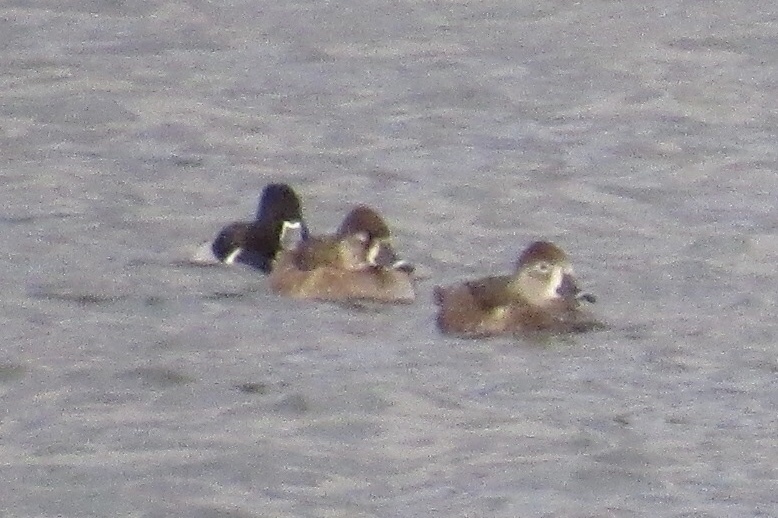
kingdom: Animalia
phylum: Chordata
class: Aves
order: Anseriformes
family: Anatidae
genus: Aythya
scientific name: Aythya collaris
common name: Ring-necked duck
